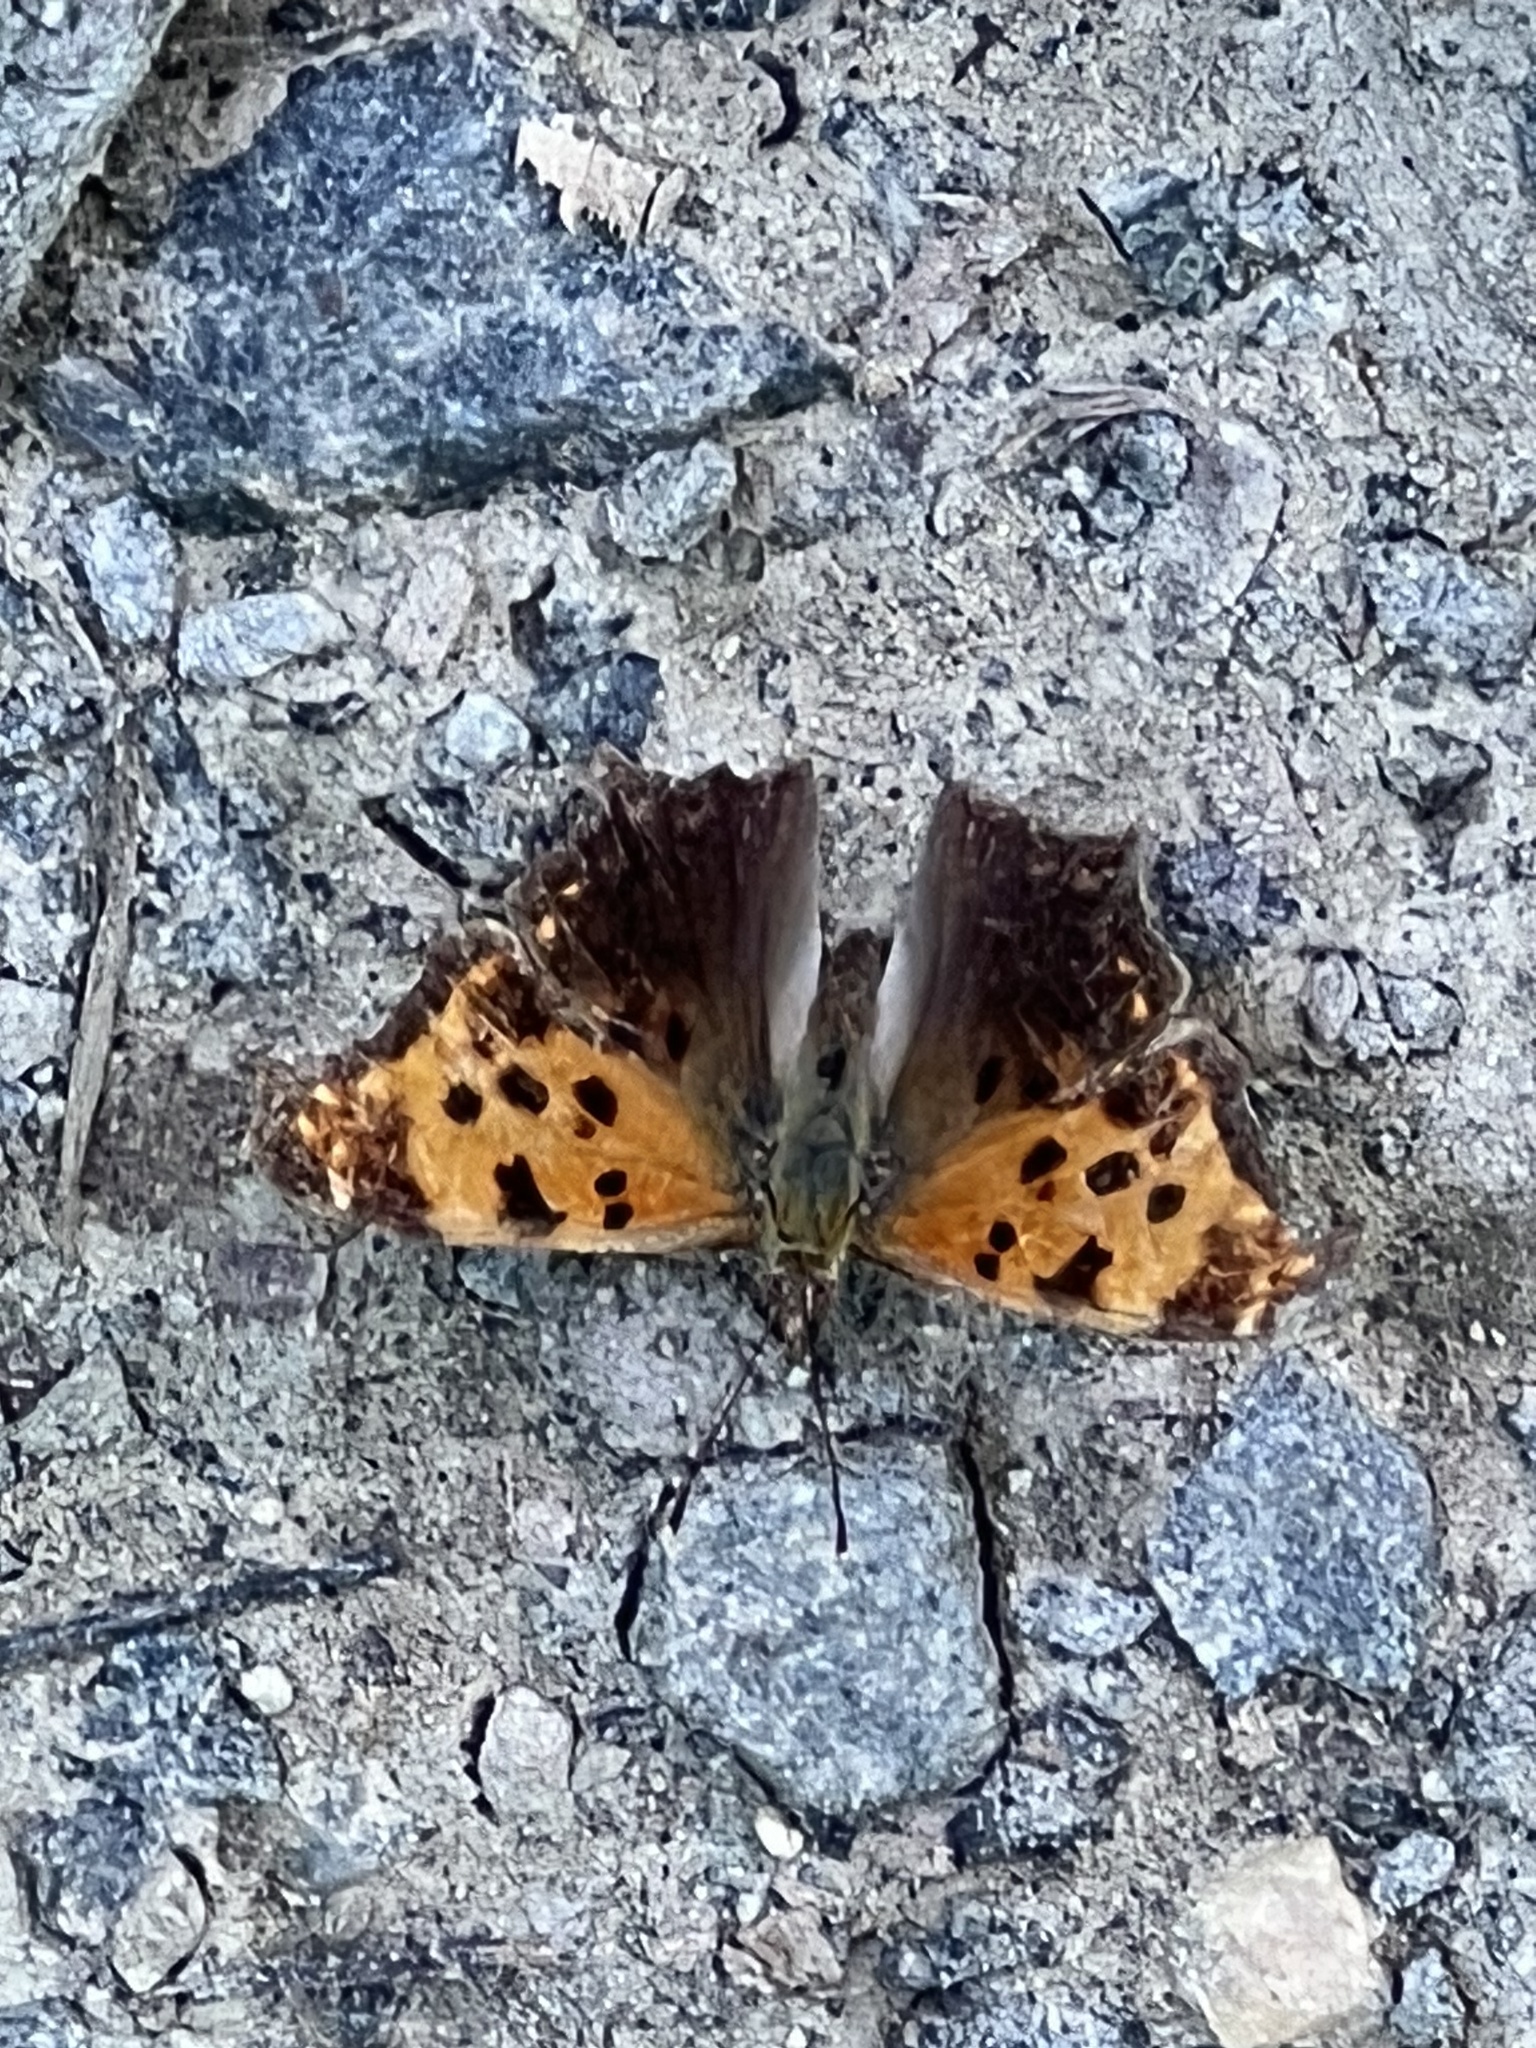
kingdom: Animalia
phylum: Arthropoda
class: Insecta
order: Lepidoptera
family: Nymphalidae
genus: Polygonia
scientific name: Polygonia comma
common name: Eastern comma
